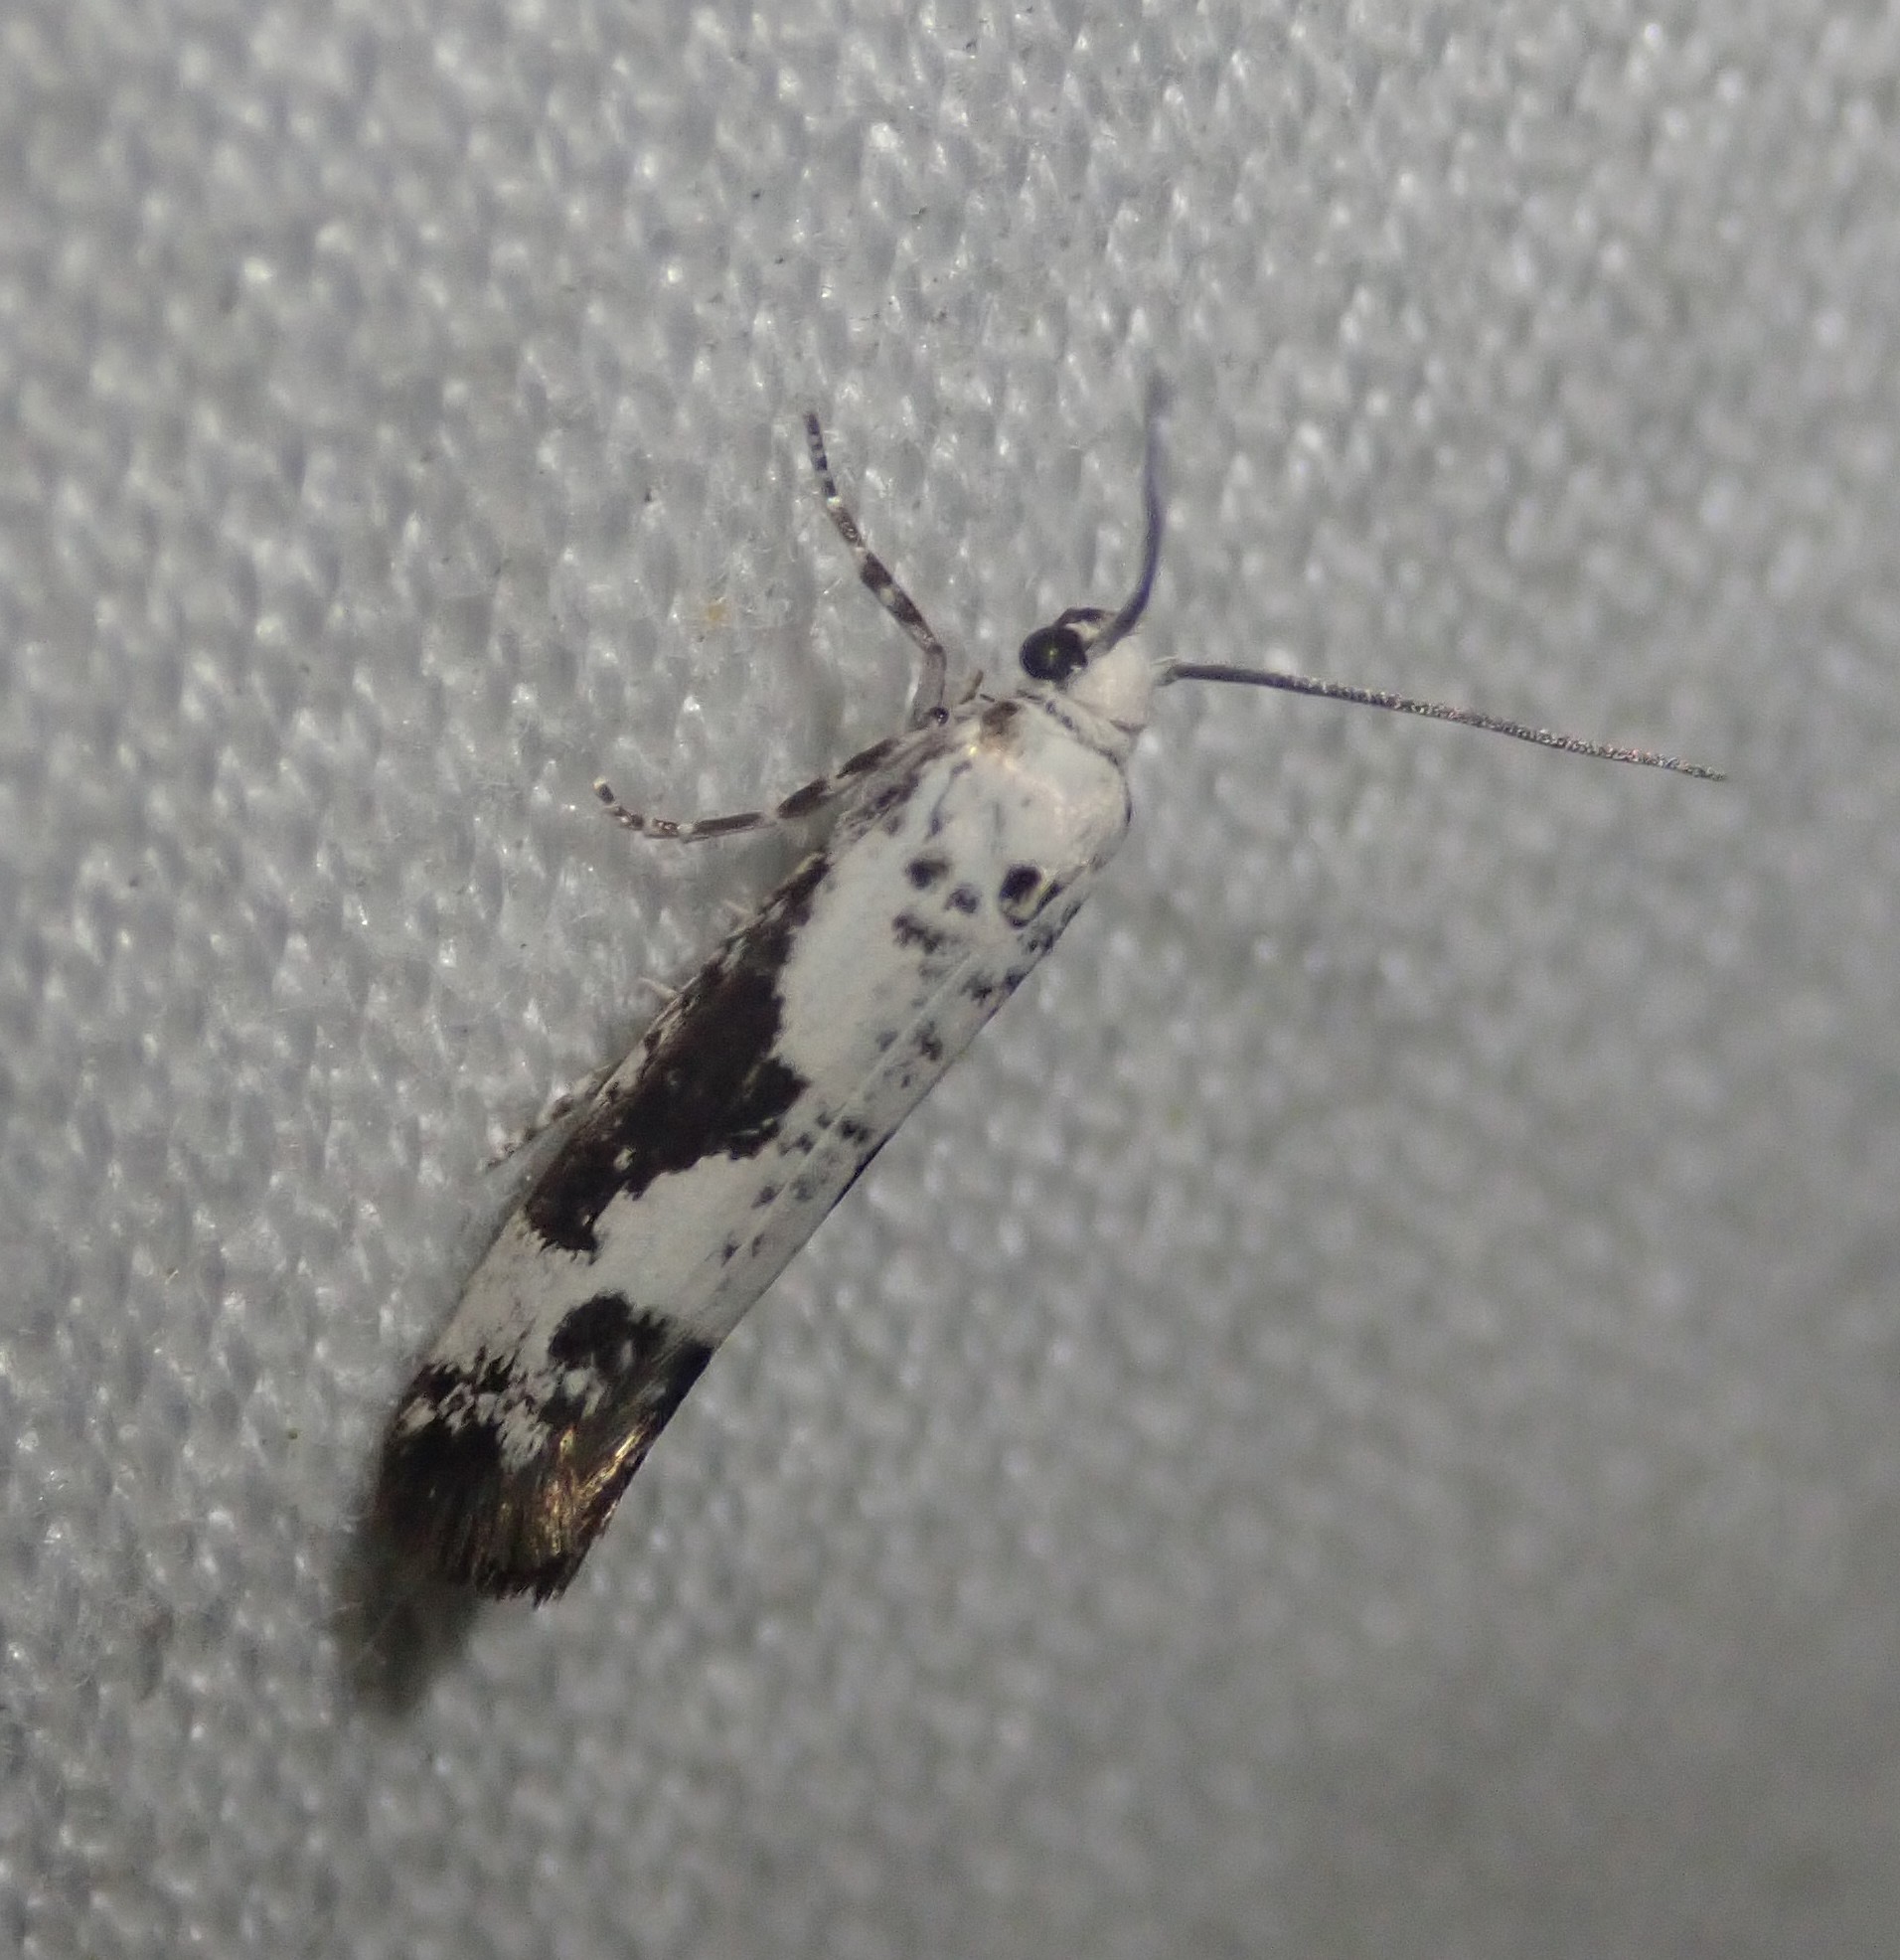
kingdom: Animalia
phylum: Arthropoda
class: Insecta
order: Lepidoptera
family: Praydidae
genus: Prays
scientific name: Prays fraxinella
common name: Ash bud moth
